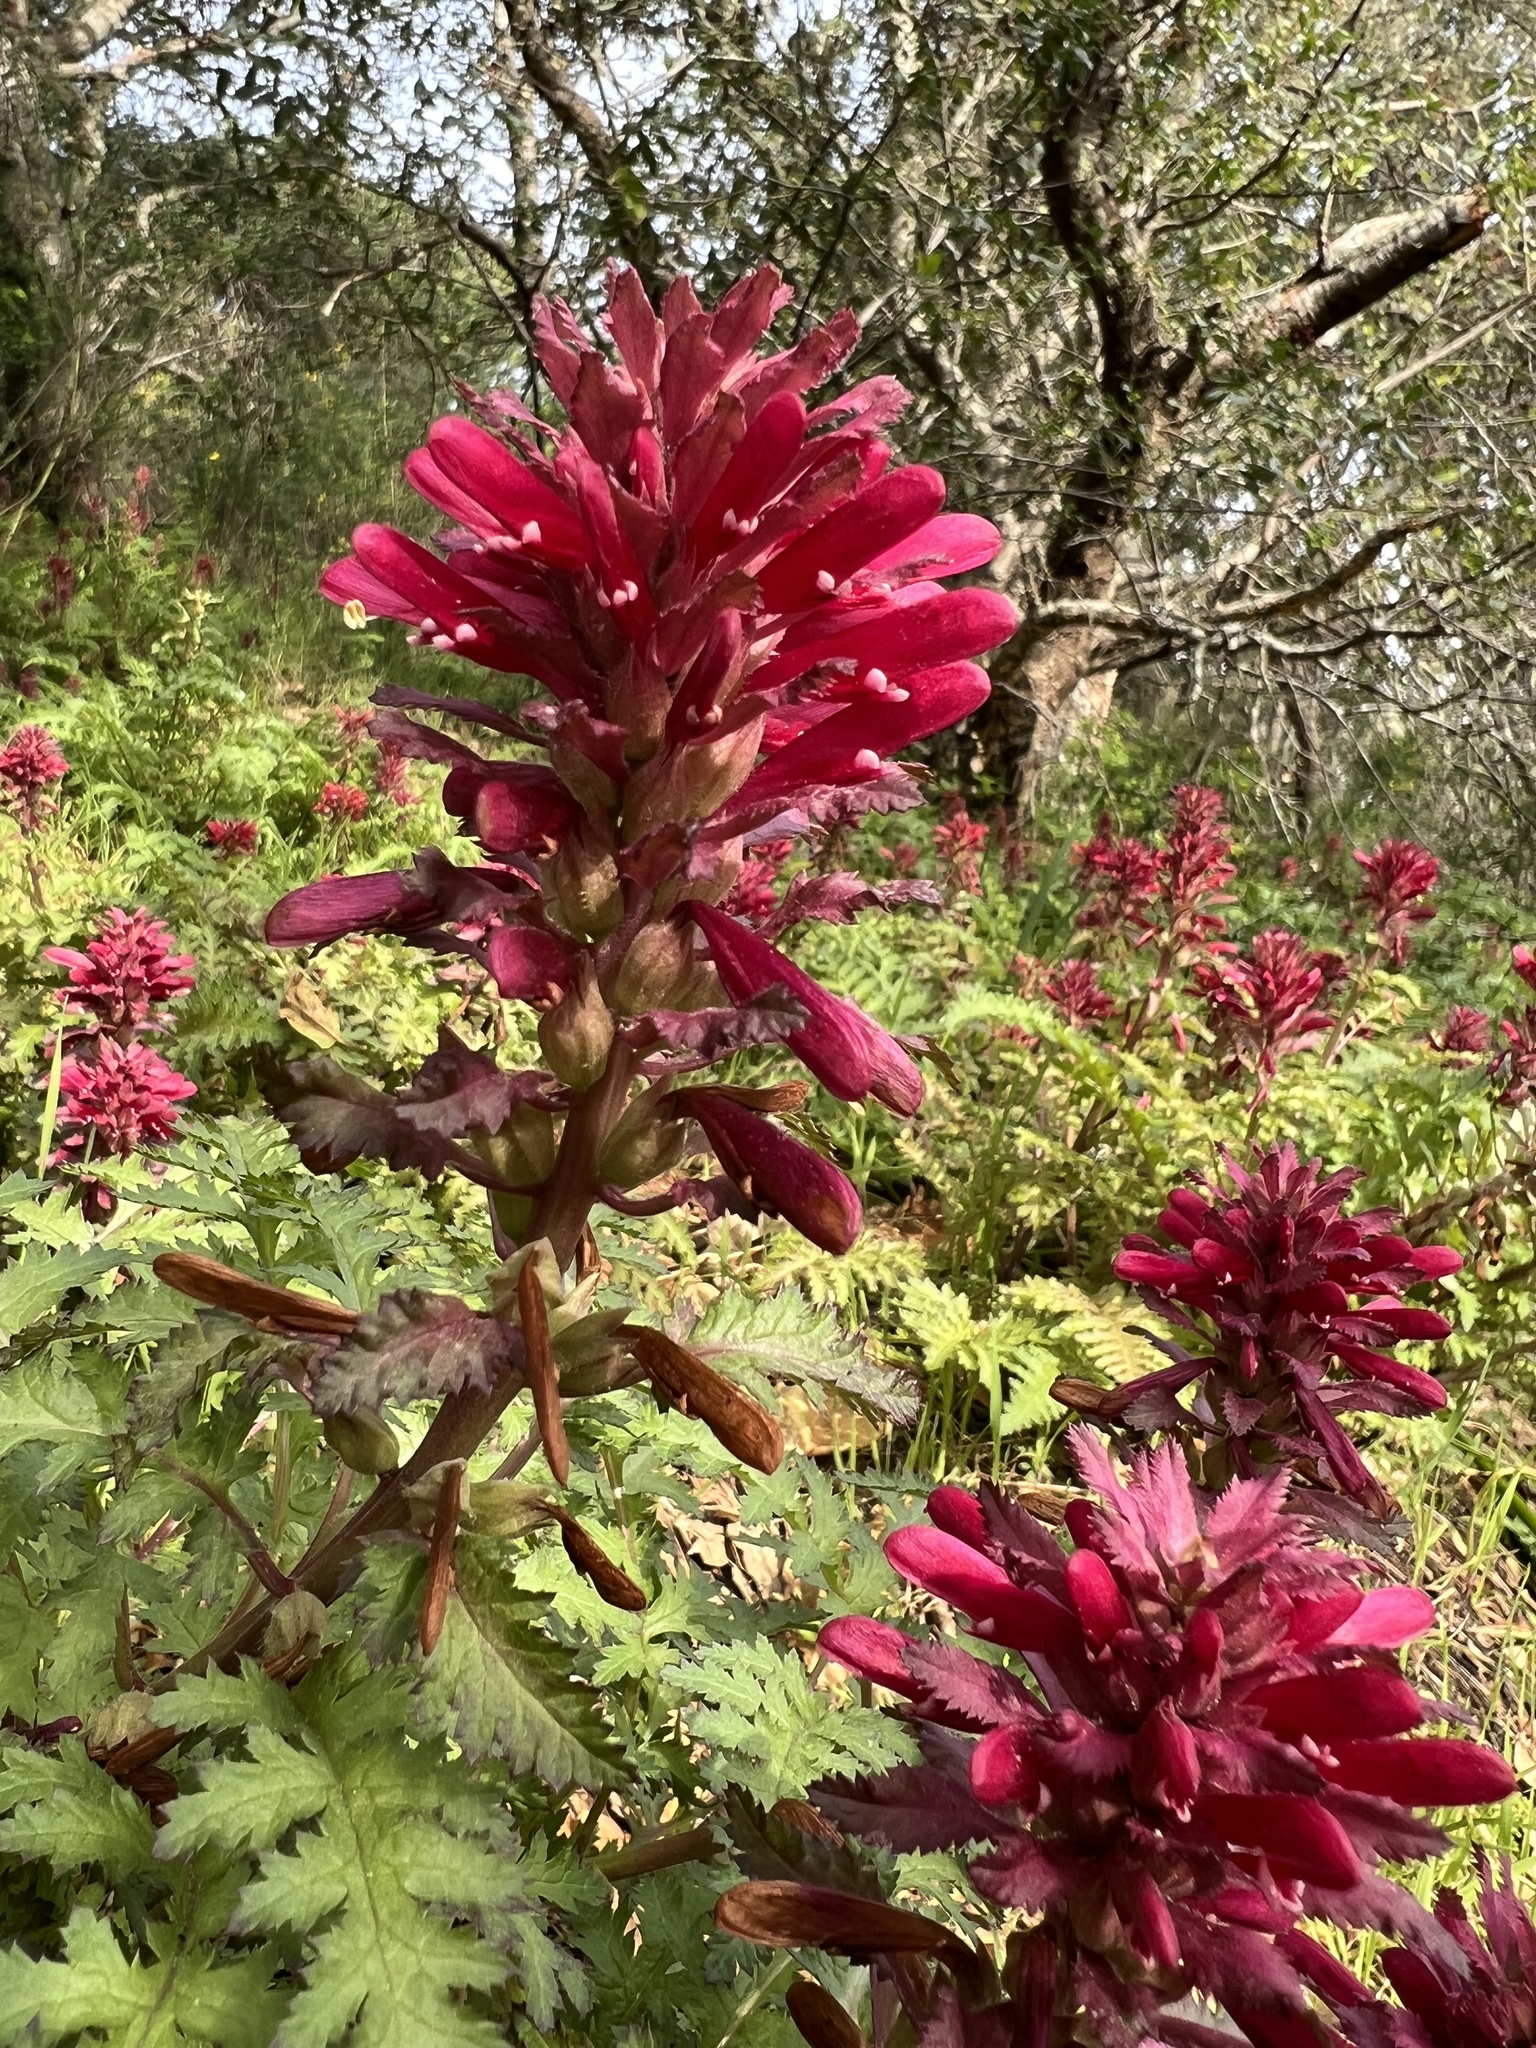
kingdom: Plantae
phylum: Tracheophyta
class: Magnoliopsida
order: Lamiales
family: Orobanchaceae
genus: Pedicularis
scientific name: Pedicularis densiflora
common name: Indian warrior
